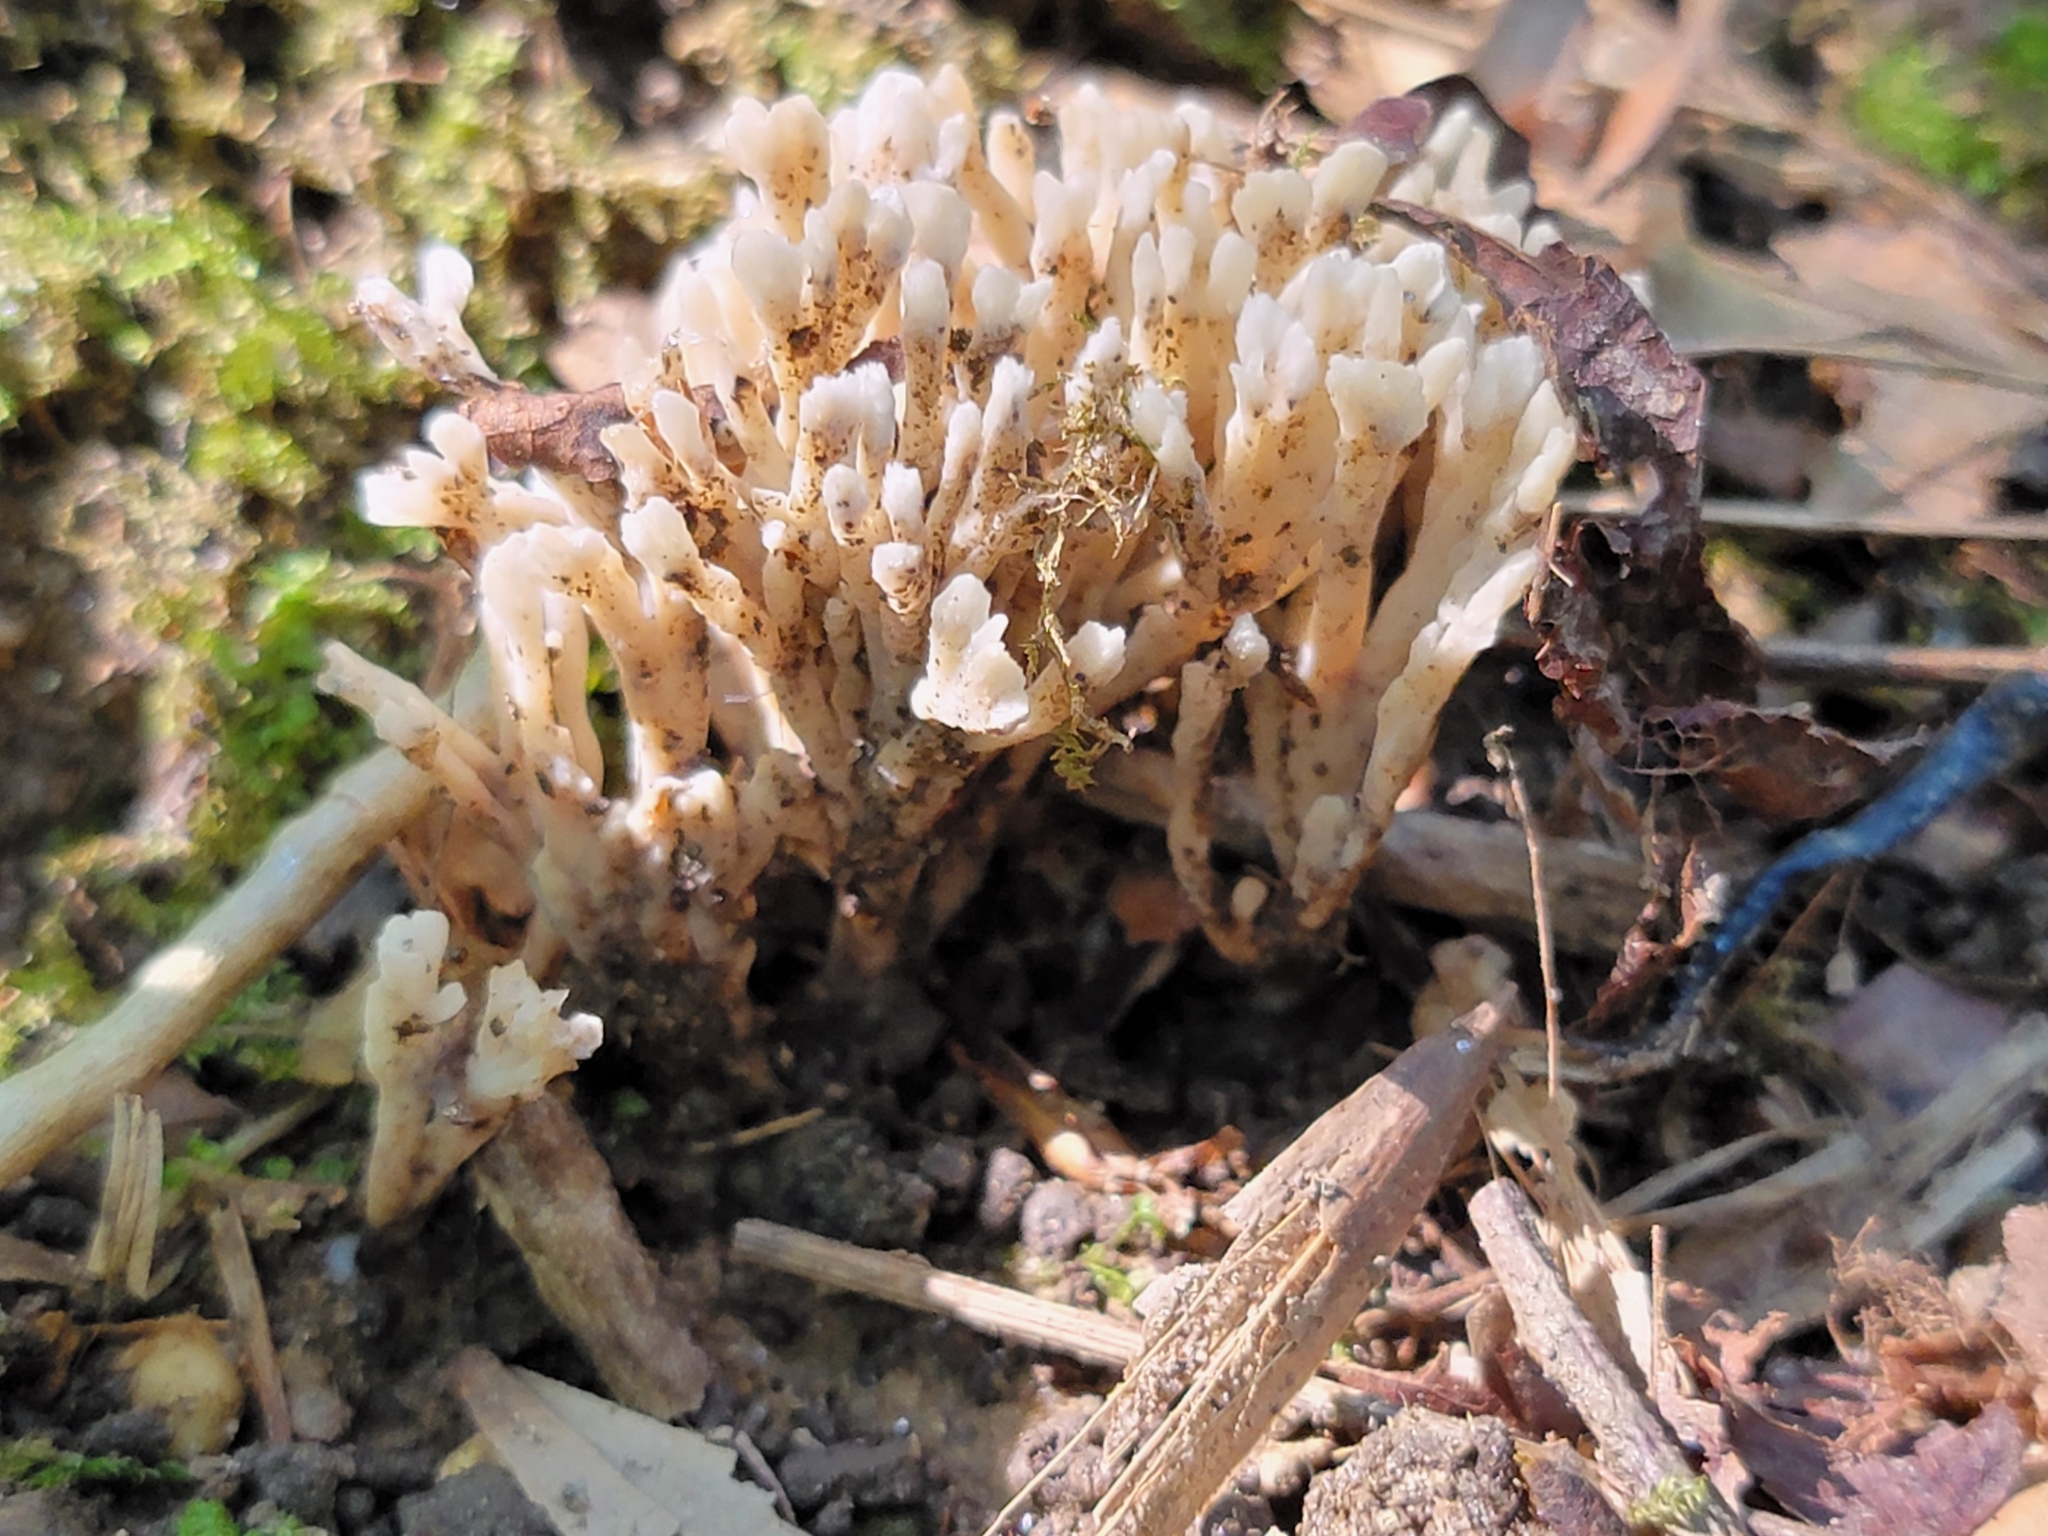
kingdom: Fungi
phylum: Basidiomycota
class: Agaricomycetes
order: Sebacinales
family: Sebacinaceae
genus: Sebacina
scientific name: Sebacina schweinitzii
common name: Jellied false coral fungus
